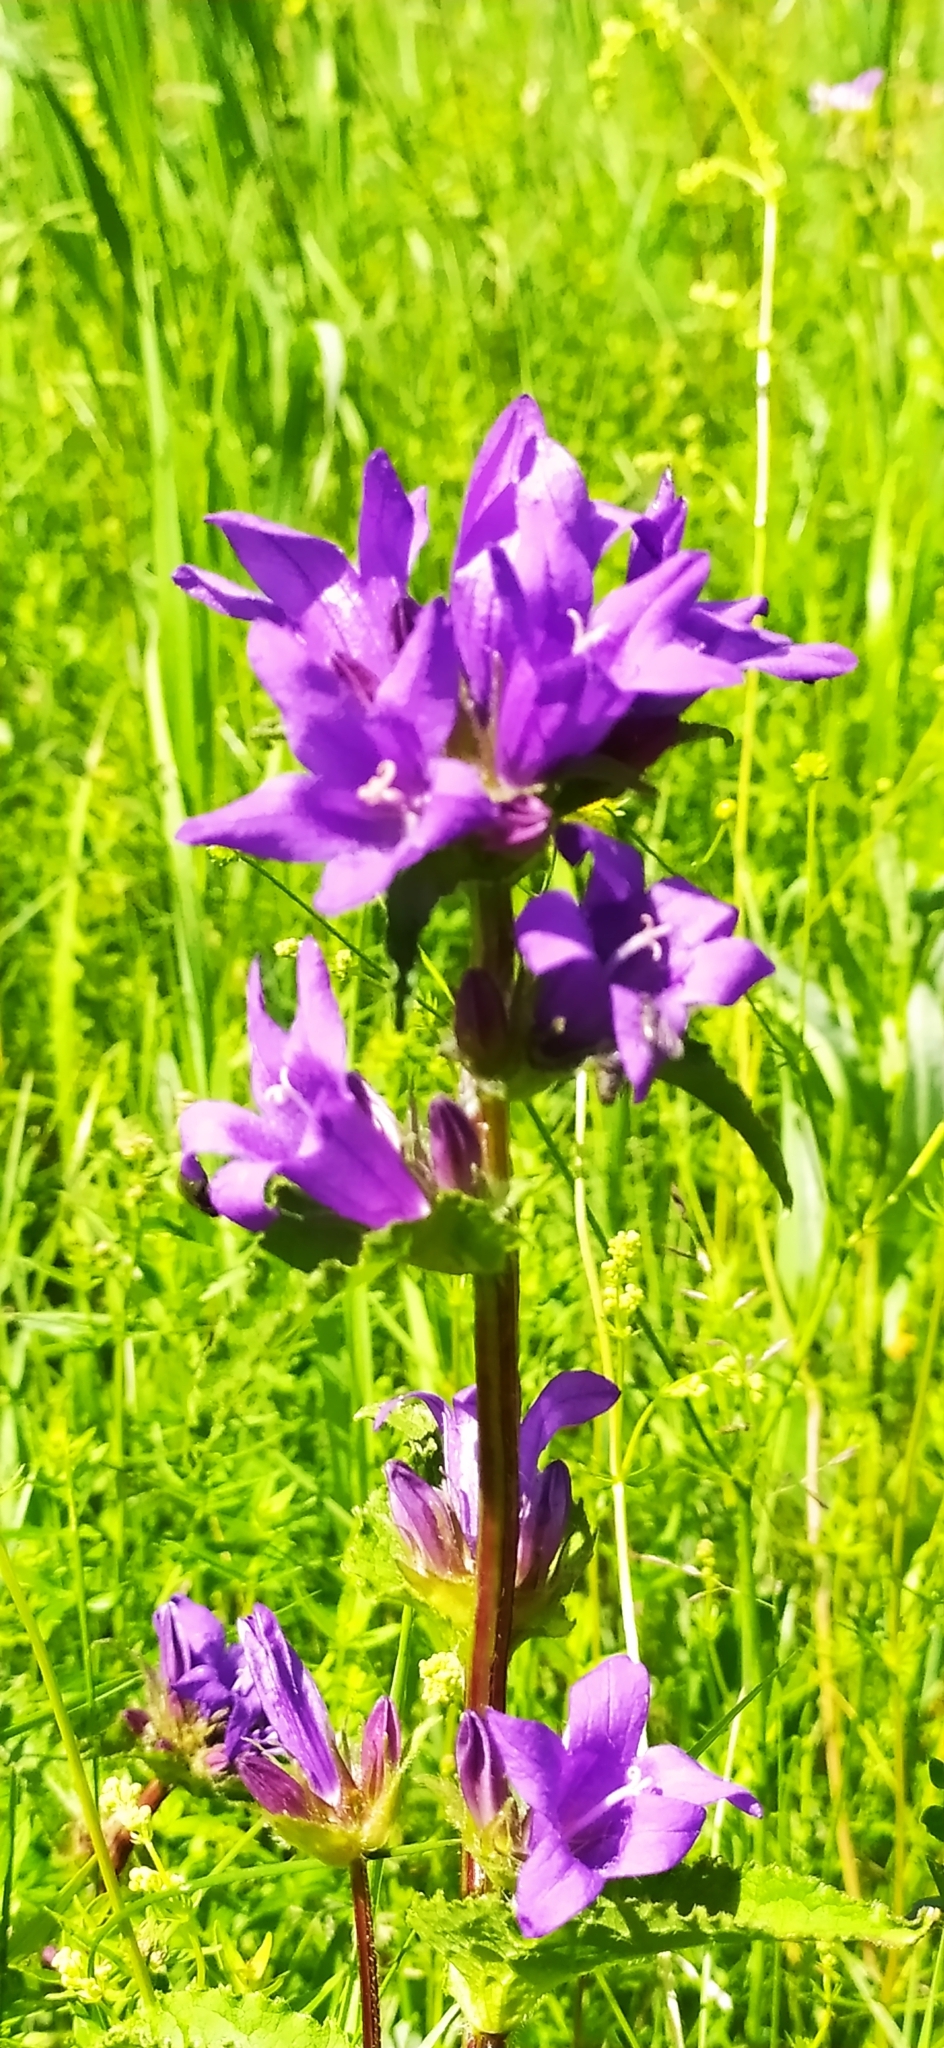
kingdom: Plantae
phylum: Tracheophyta
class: Magnoliopsida
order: Asterales
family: Campanulaceae
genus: Campanula
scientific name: Campanula glomerata
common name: Clustered bellflower
